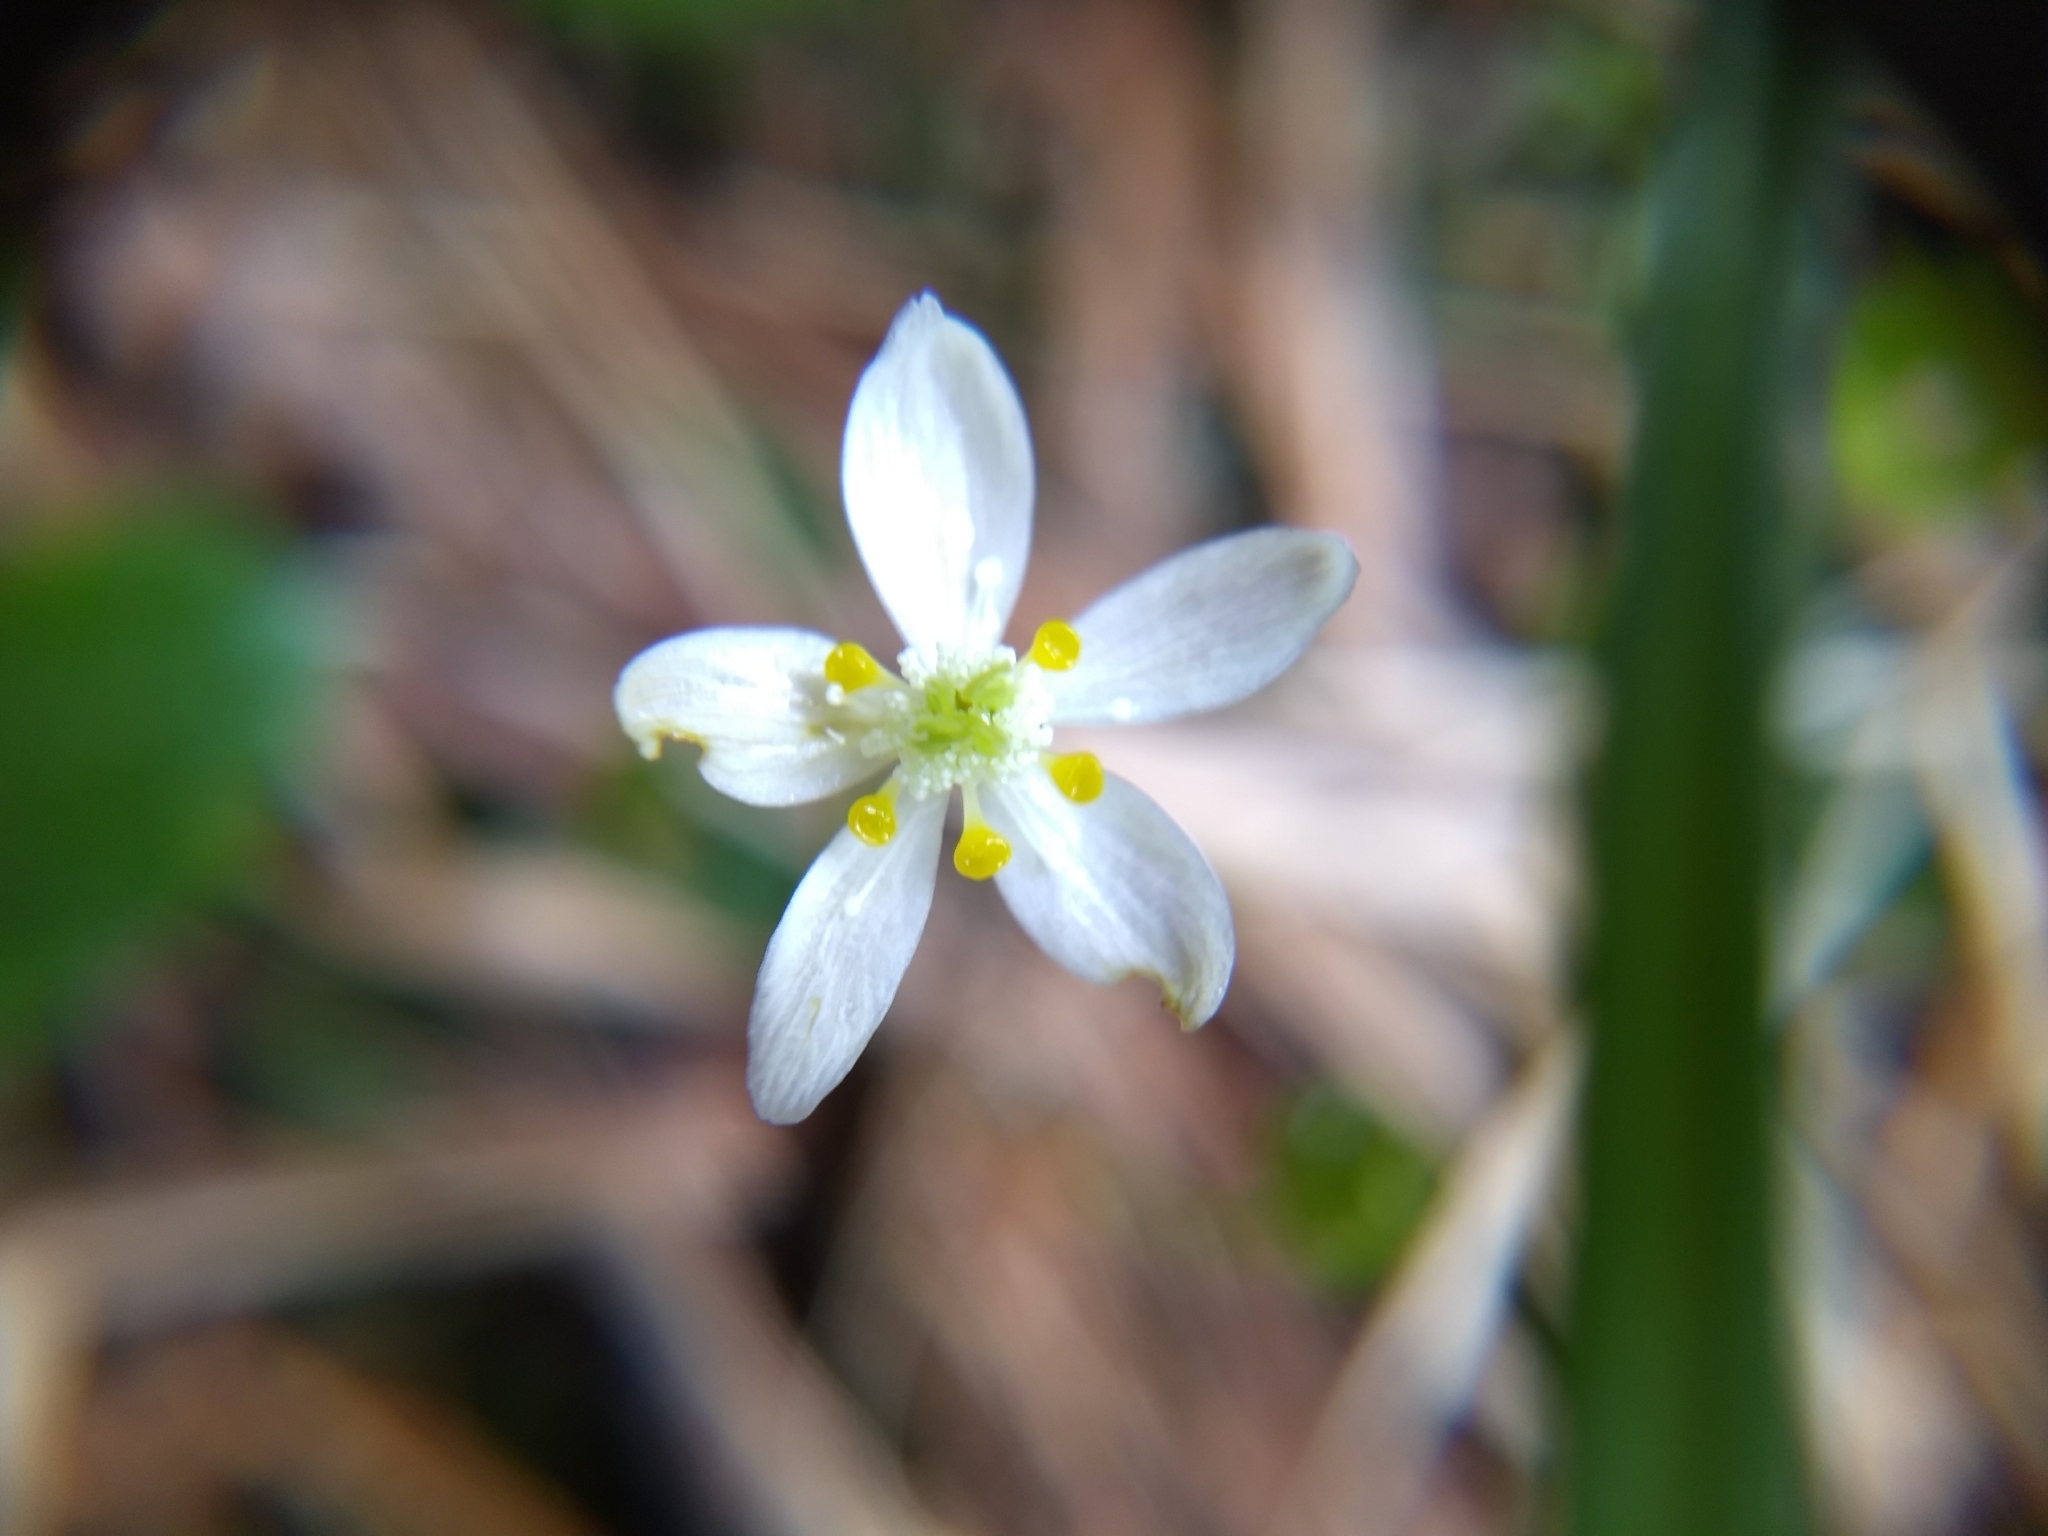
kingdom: Plantae
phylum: Tracheophyta
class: Magnoliopsida
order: Ranunculales
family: Ranunculaceae
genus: Coptis
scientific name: Coptis trifolia
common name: Canker-root
